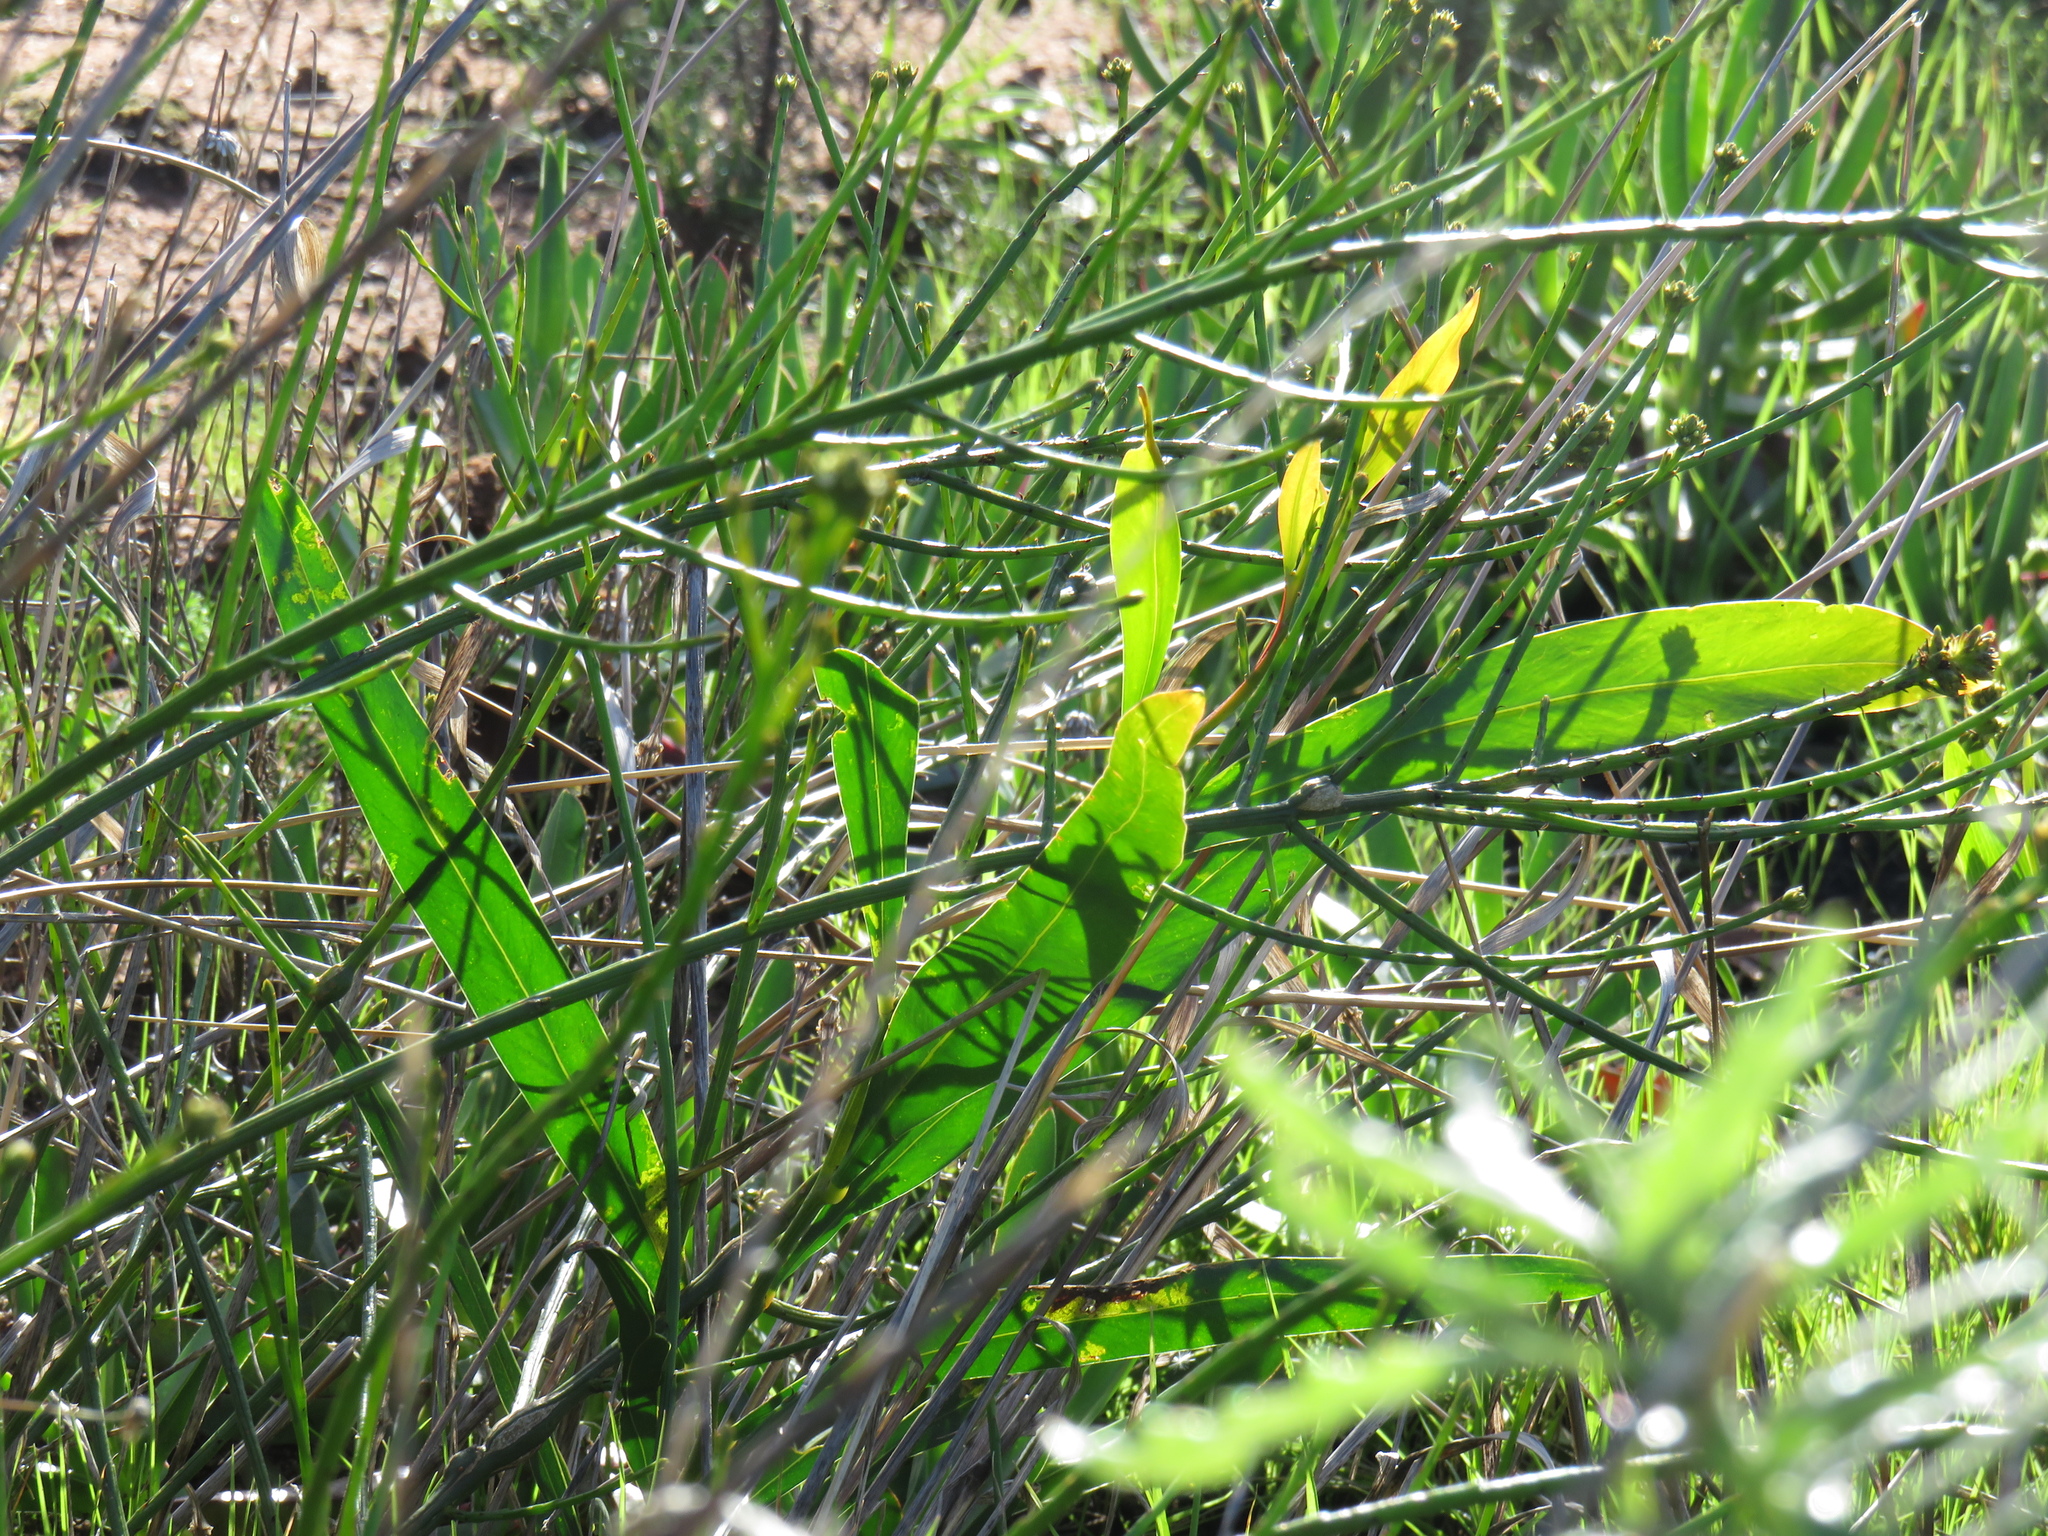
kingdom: Plantae
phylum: Tracheophyta
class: Magnoliopsida
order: Fabales
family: Fabaceae
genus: Acacia
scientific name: Acacia saligna
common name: Orange wattle
